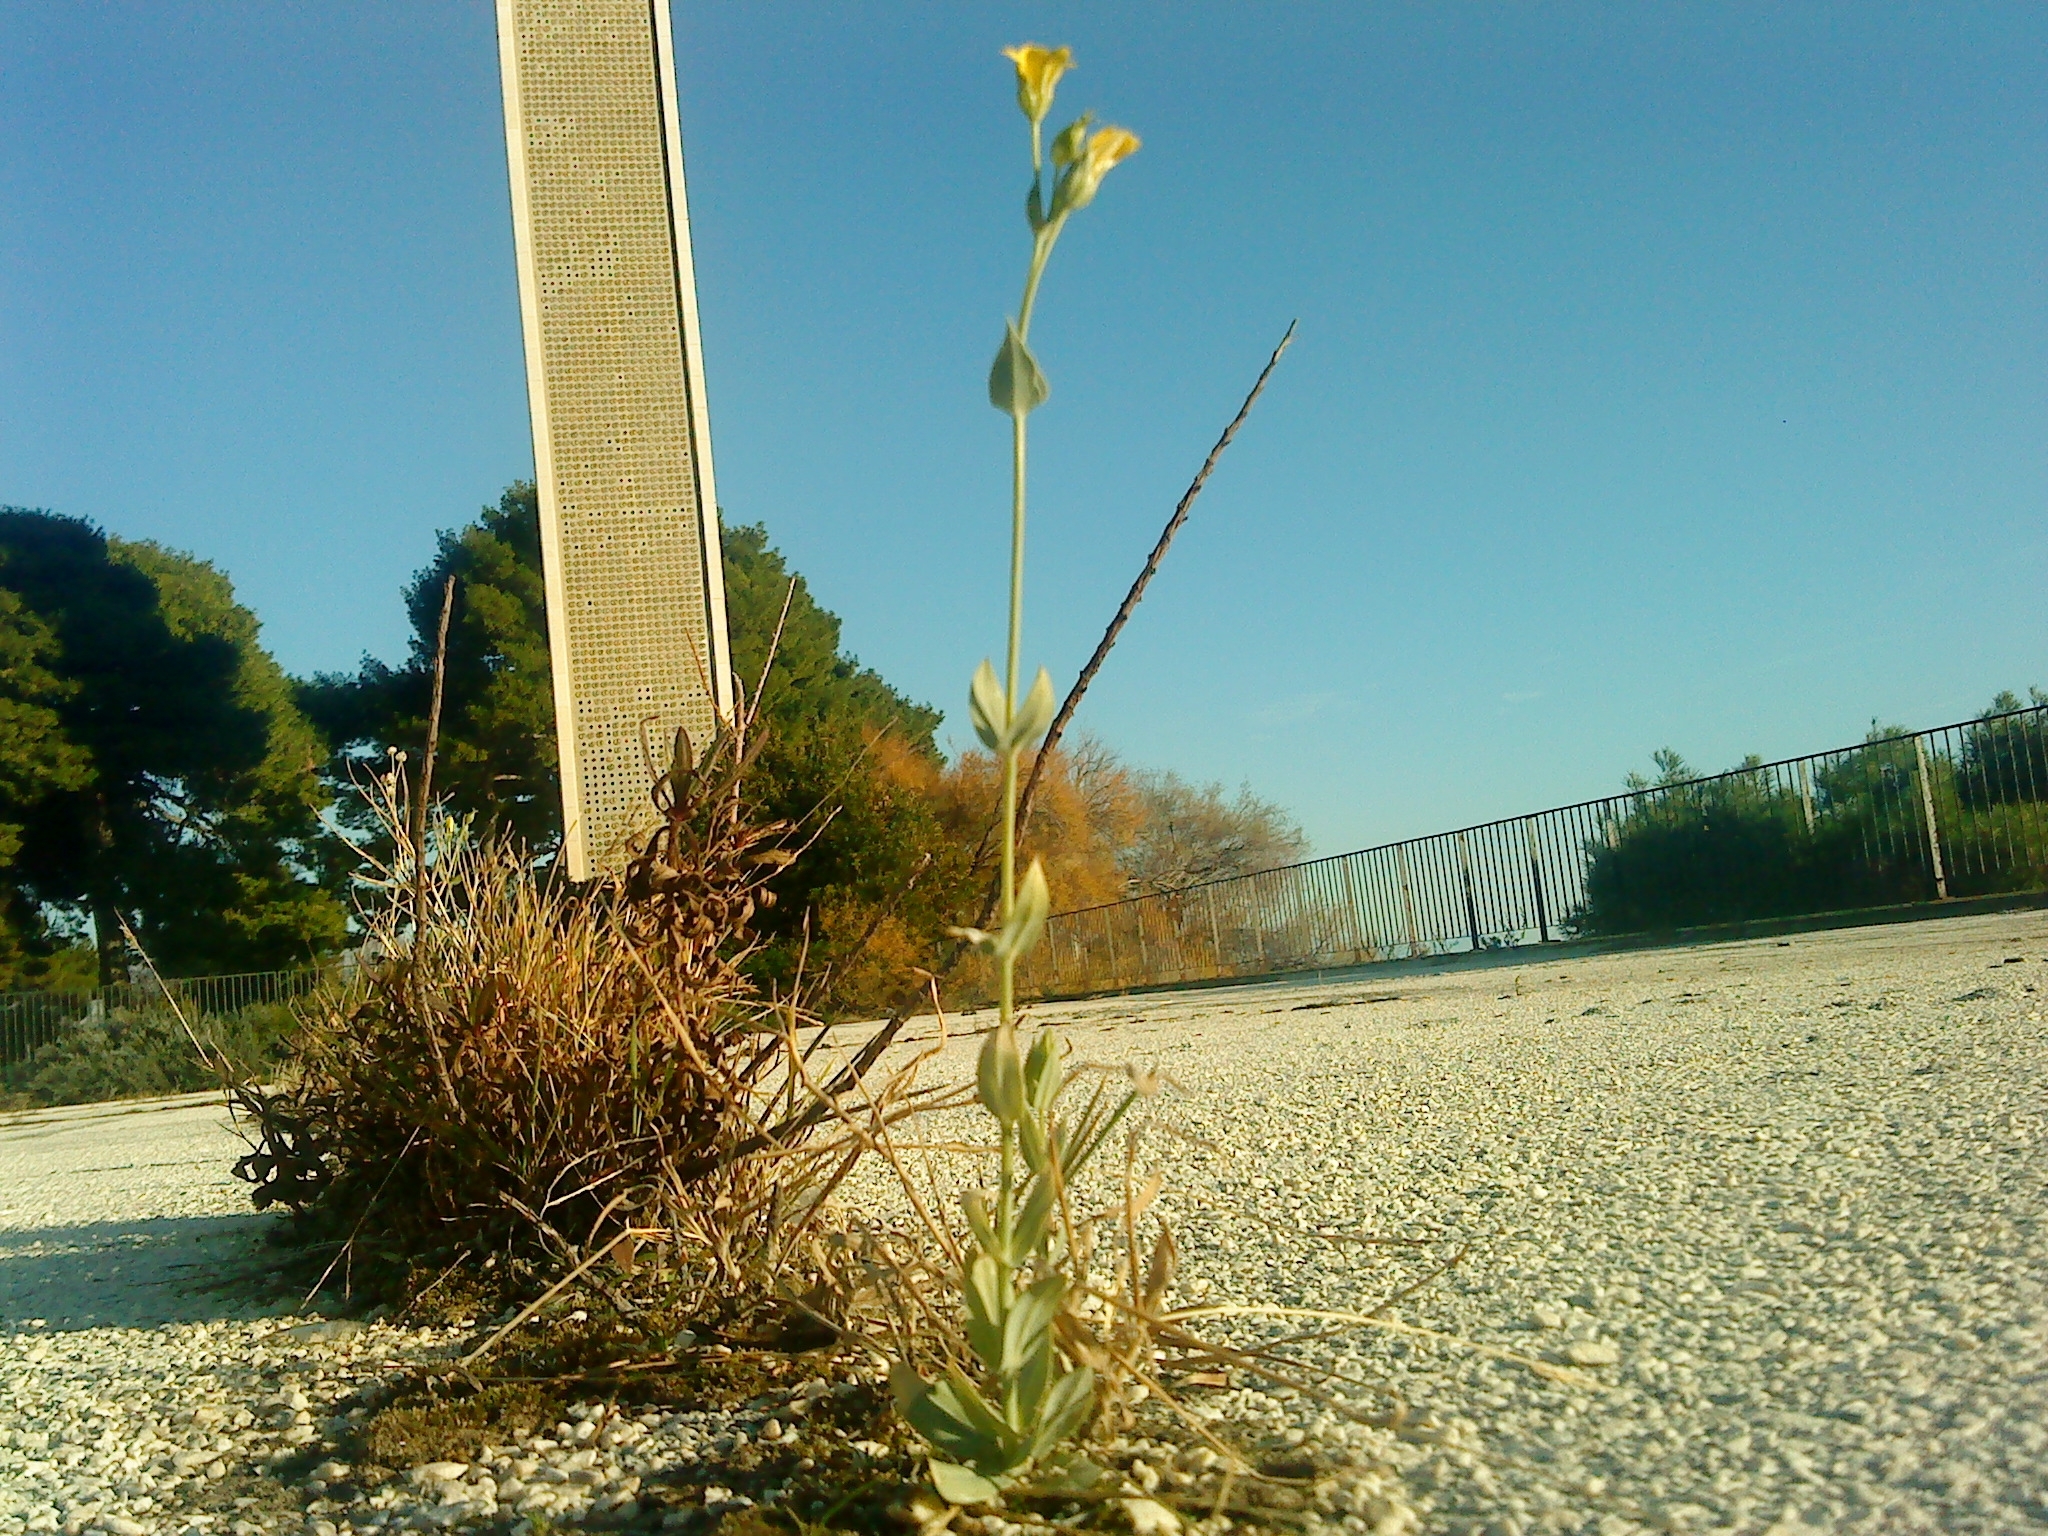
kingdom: Plantae
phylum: Tracheophyta
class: Magnoliopsida
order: Gentianales
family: Gentianaceae
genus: Blackstonia
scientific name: Blackstonia perfoliata
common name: Yellow-wort
